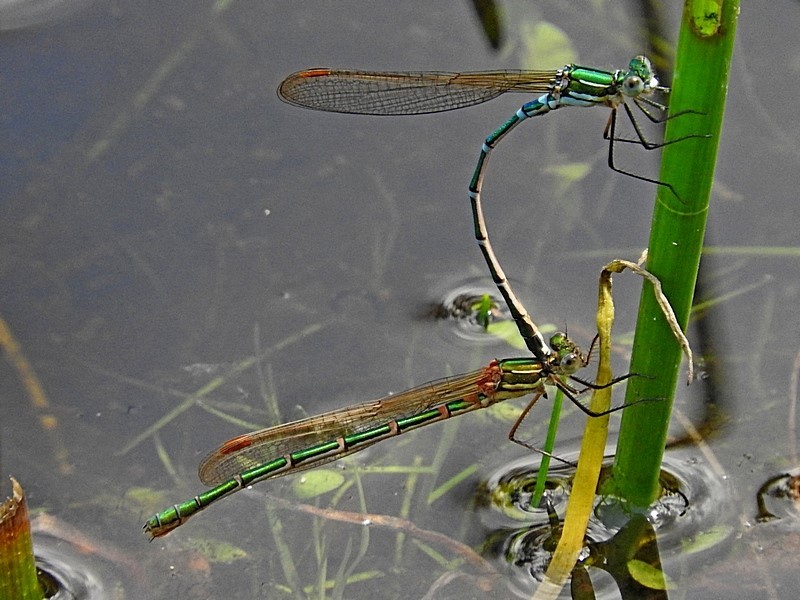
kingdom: Animalia
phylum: Arthropoda
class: Insecta
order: Odonata
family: Lestidae
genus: Austrolestes
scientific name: Austrolestes cingulatus
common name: Metallic ringtail
